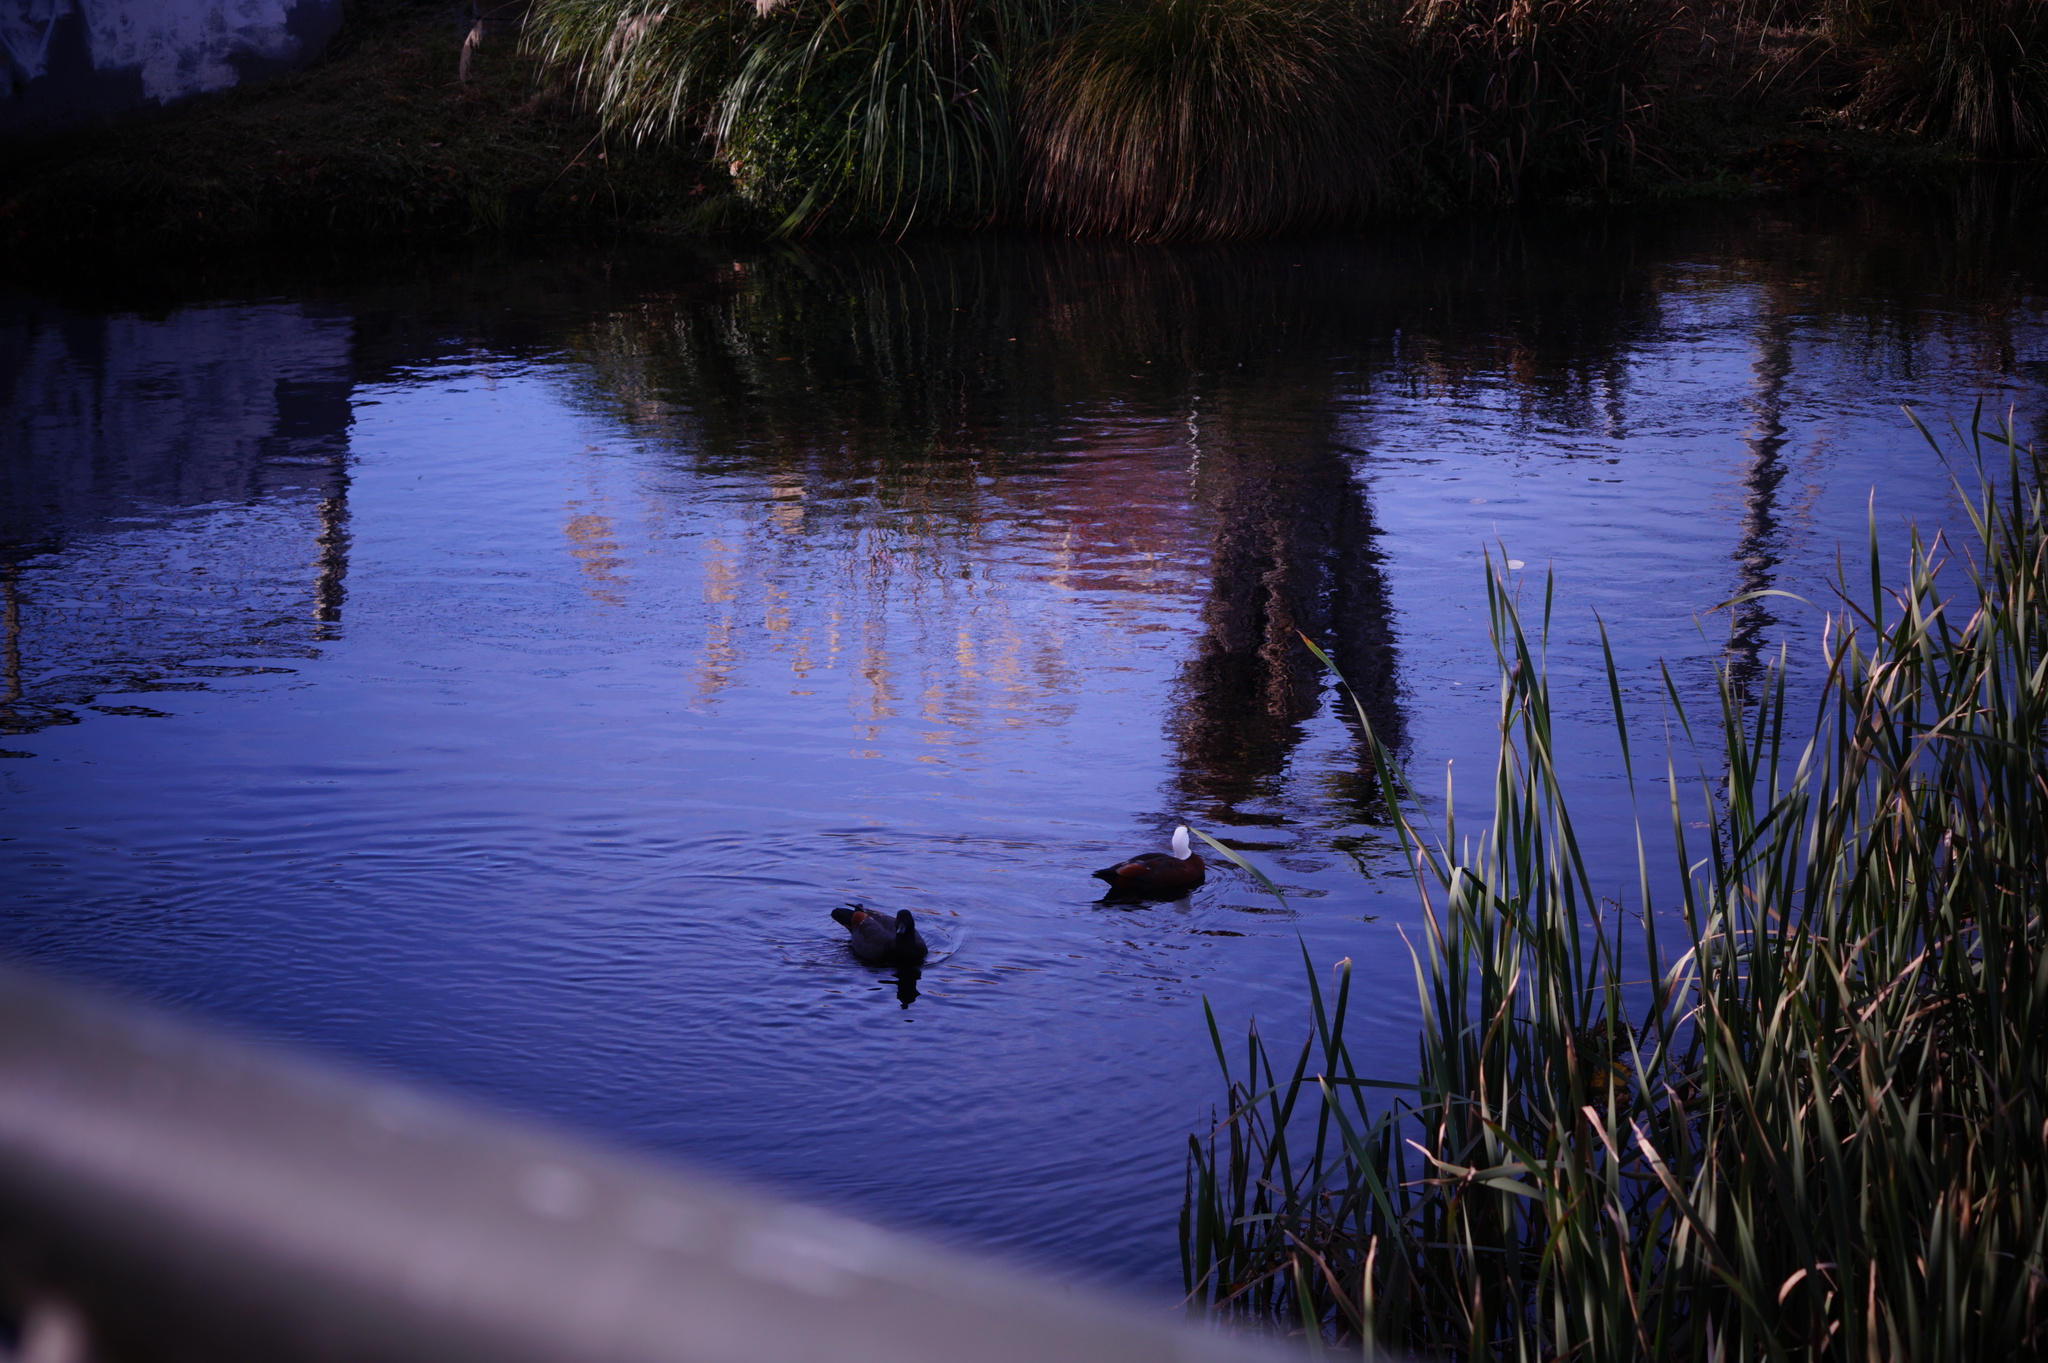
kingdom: Animalia
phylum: Chordata
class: Aves
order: Anseriformes
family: Anatidae
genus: Tadorna
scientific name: Tadorna variegata
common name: Paradise shelduck
